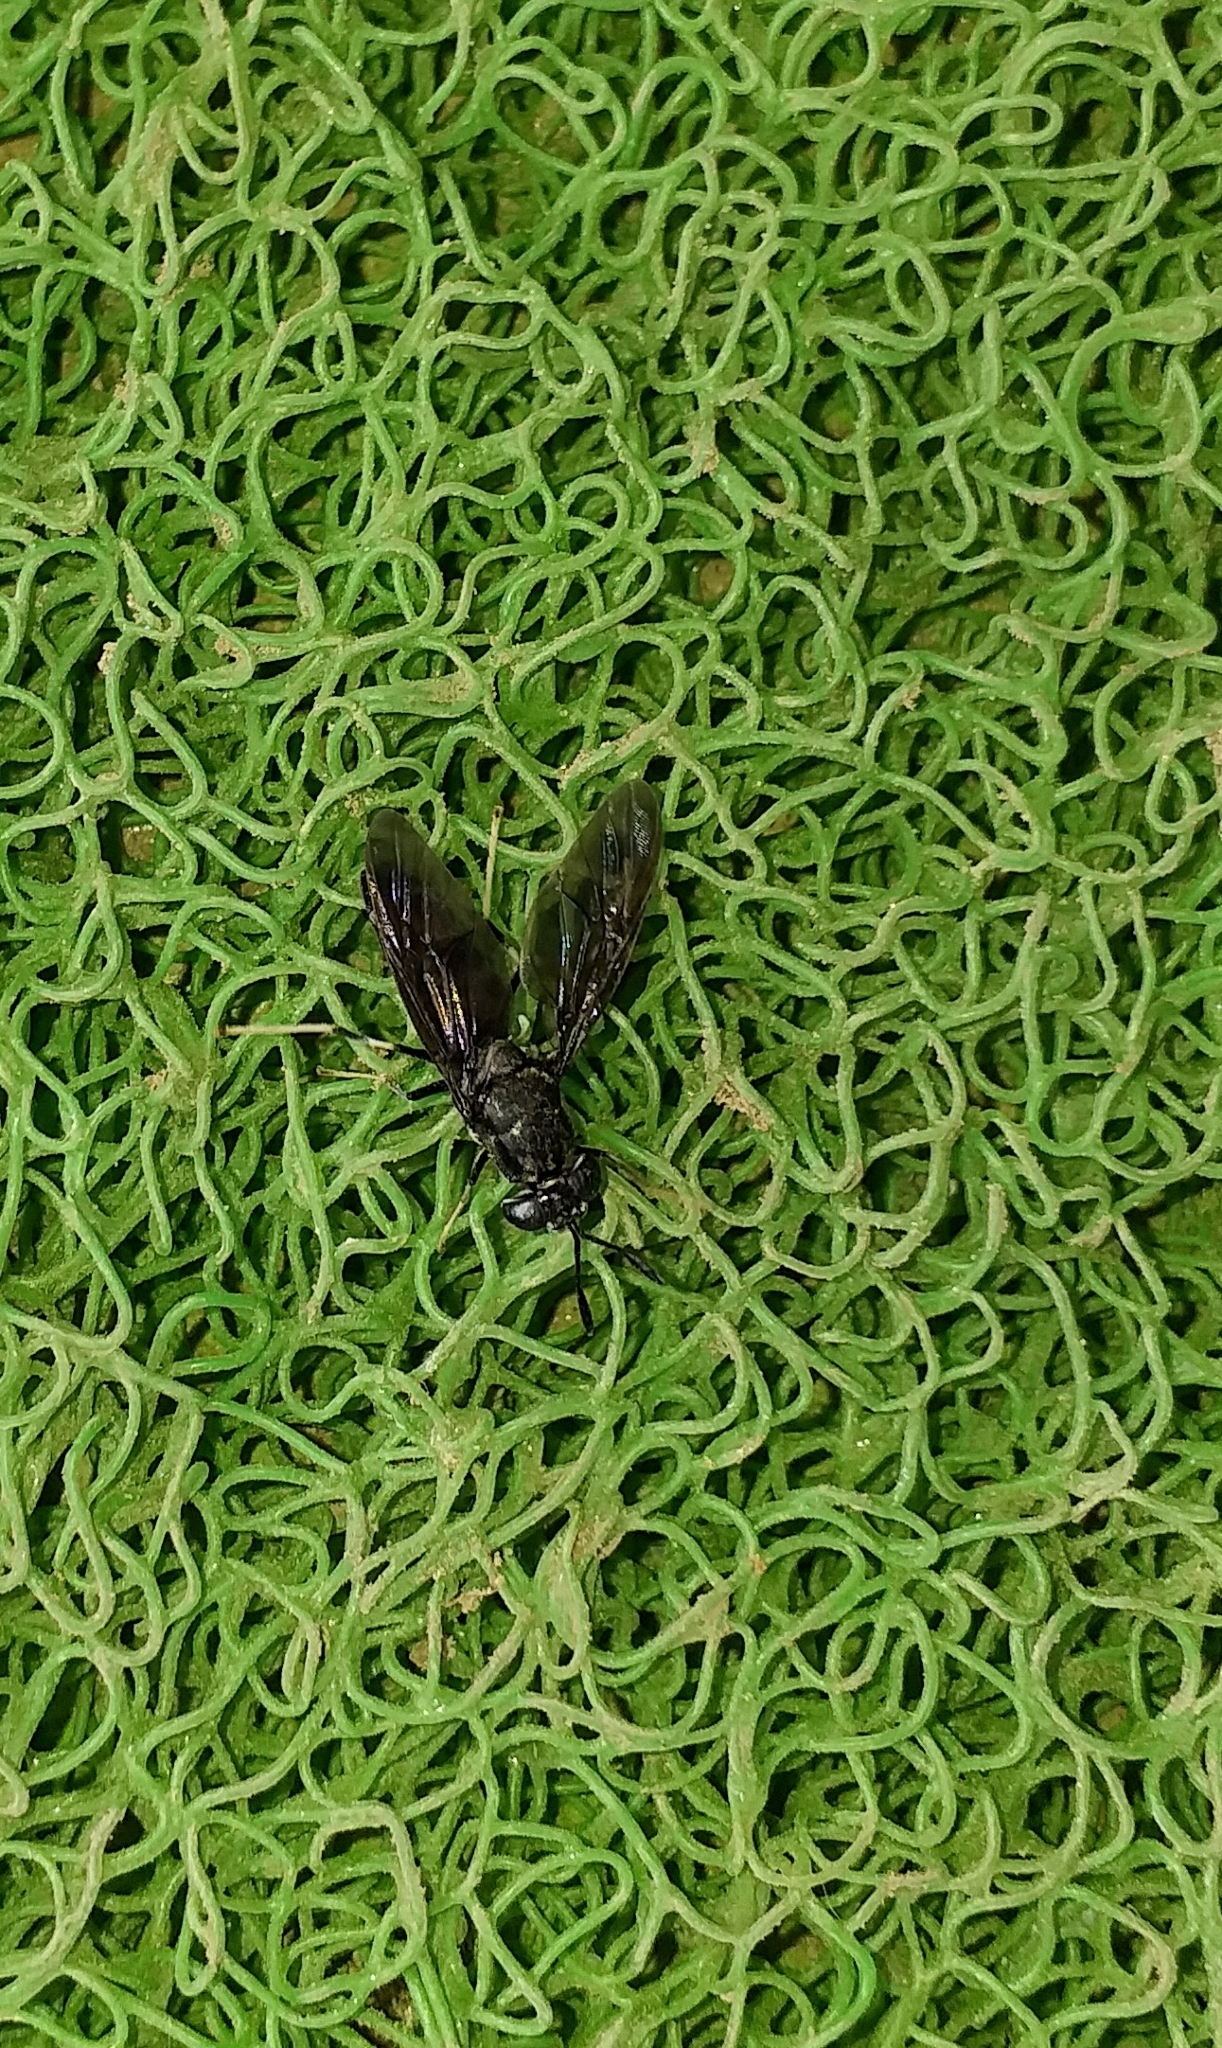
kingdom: Animalia
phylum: Arthropoda
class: Insecta
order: Diptera
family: Stratiomyidae
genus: Hermetia
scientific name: Hermetia illucens
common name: Black soldier fly
